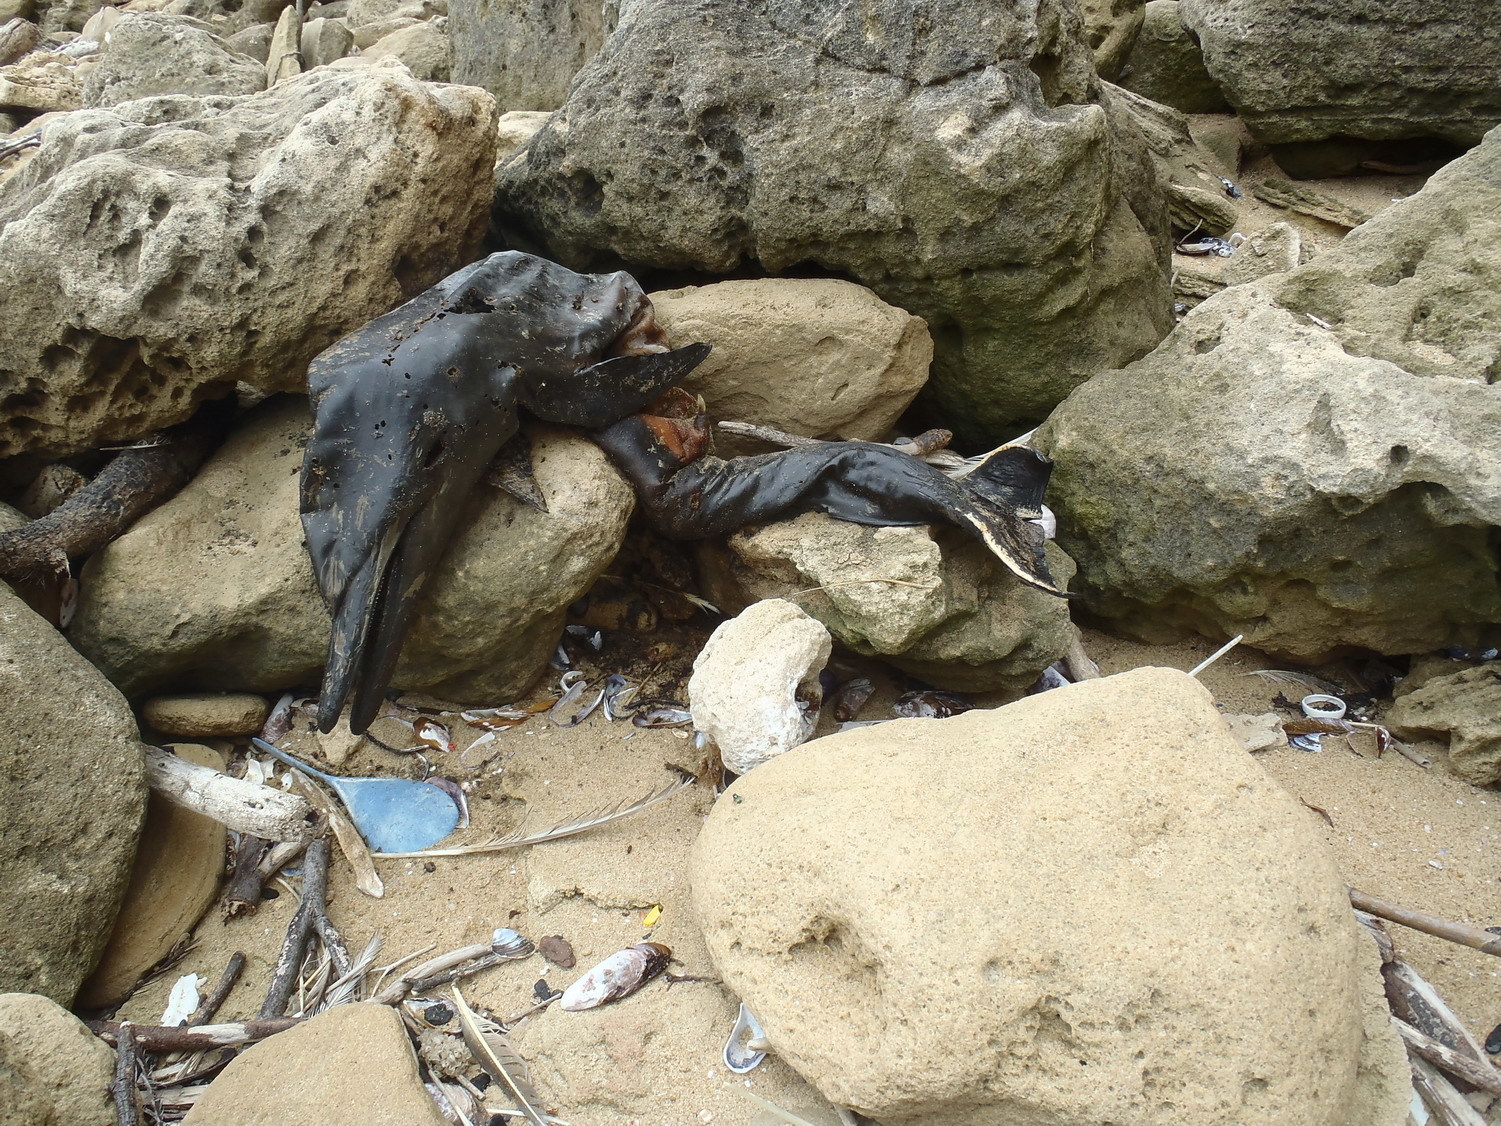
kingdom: Animalia
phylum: Chordata
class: Mammalia
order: Cetacea
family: Delphinidae
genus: Delphinus
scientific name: Delphinus delphis
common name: Common dolphin
